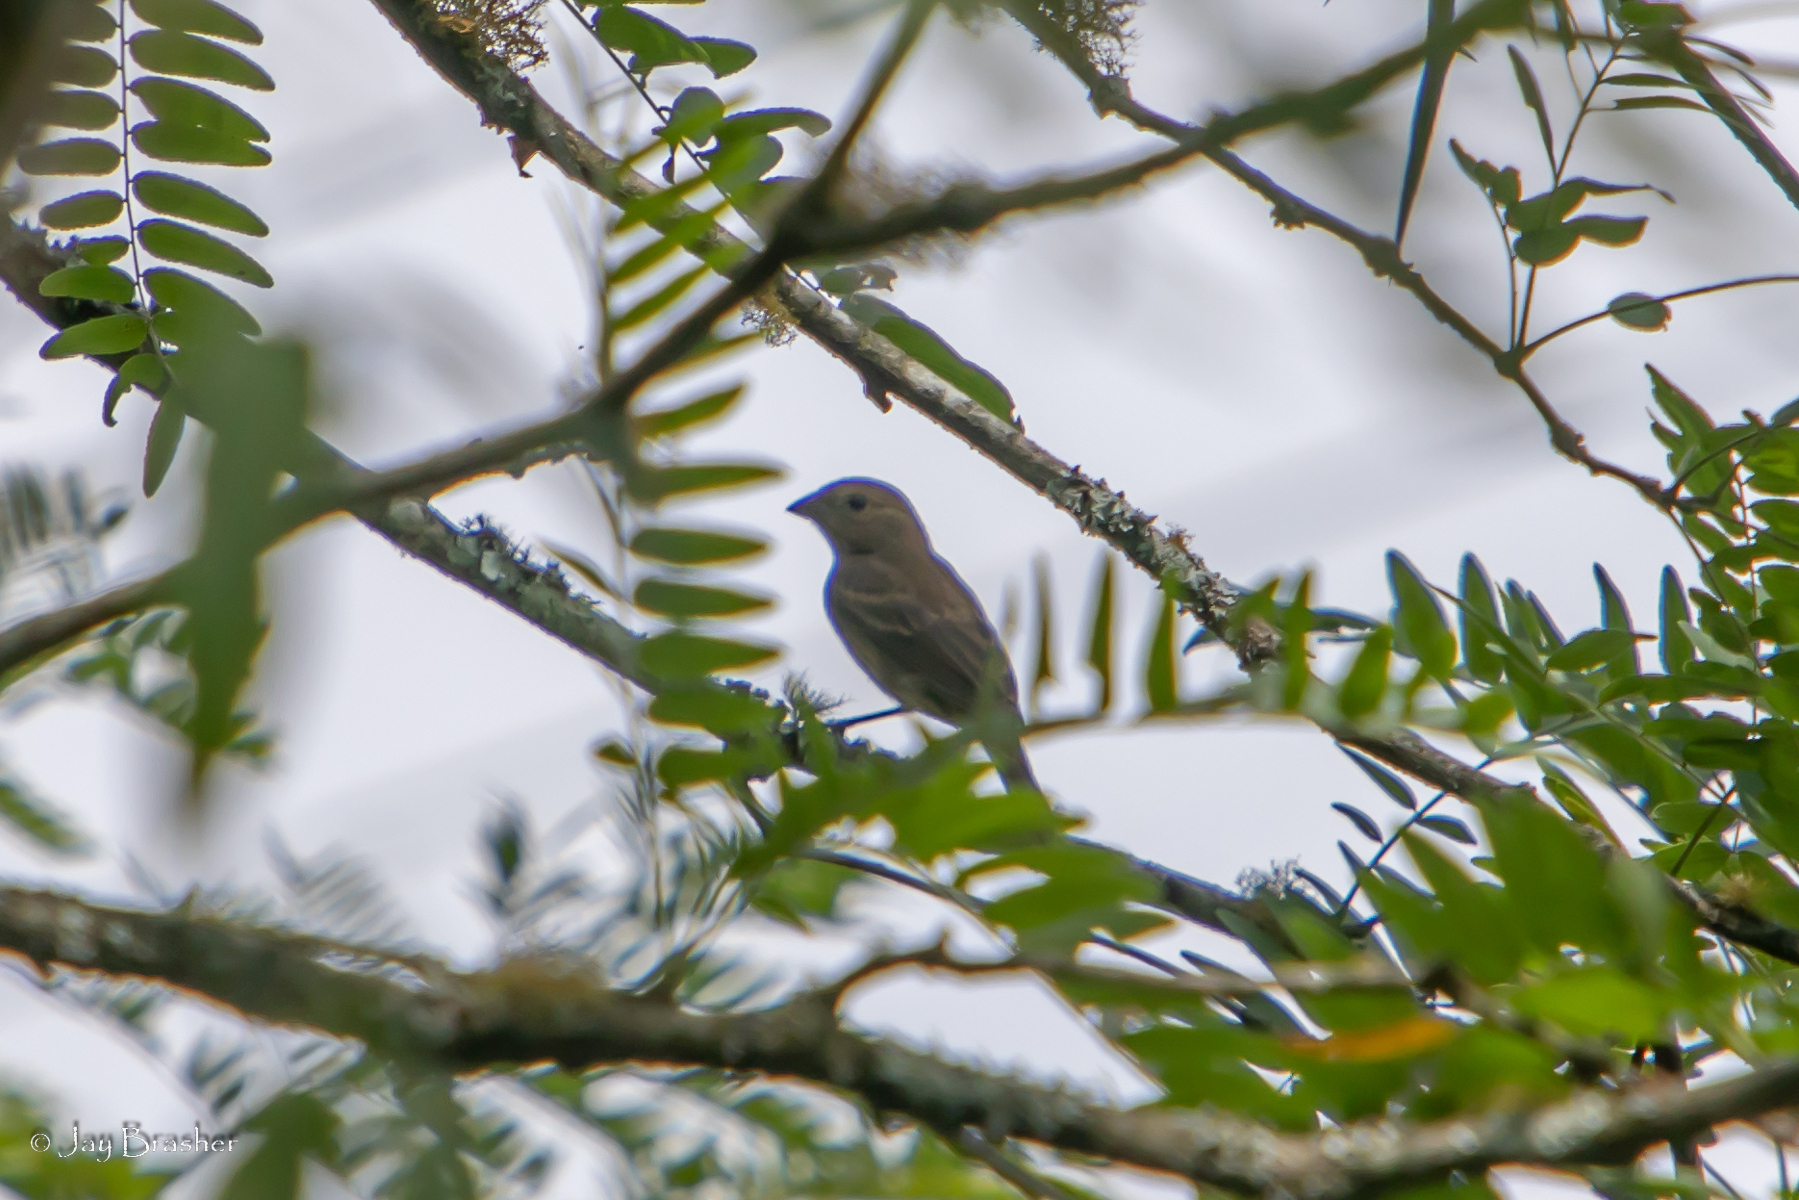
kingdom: Animalia
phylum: Chordata
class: Aves
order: Passeriformes
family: Cardinalidae
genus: Passerina
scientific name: Passerina cyanea
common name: Indigo bunting
